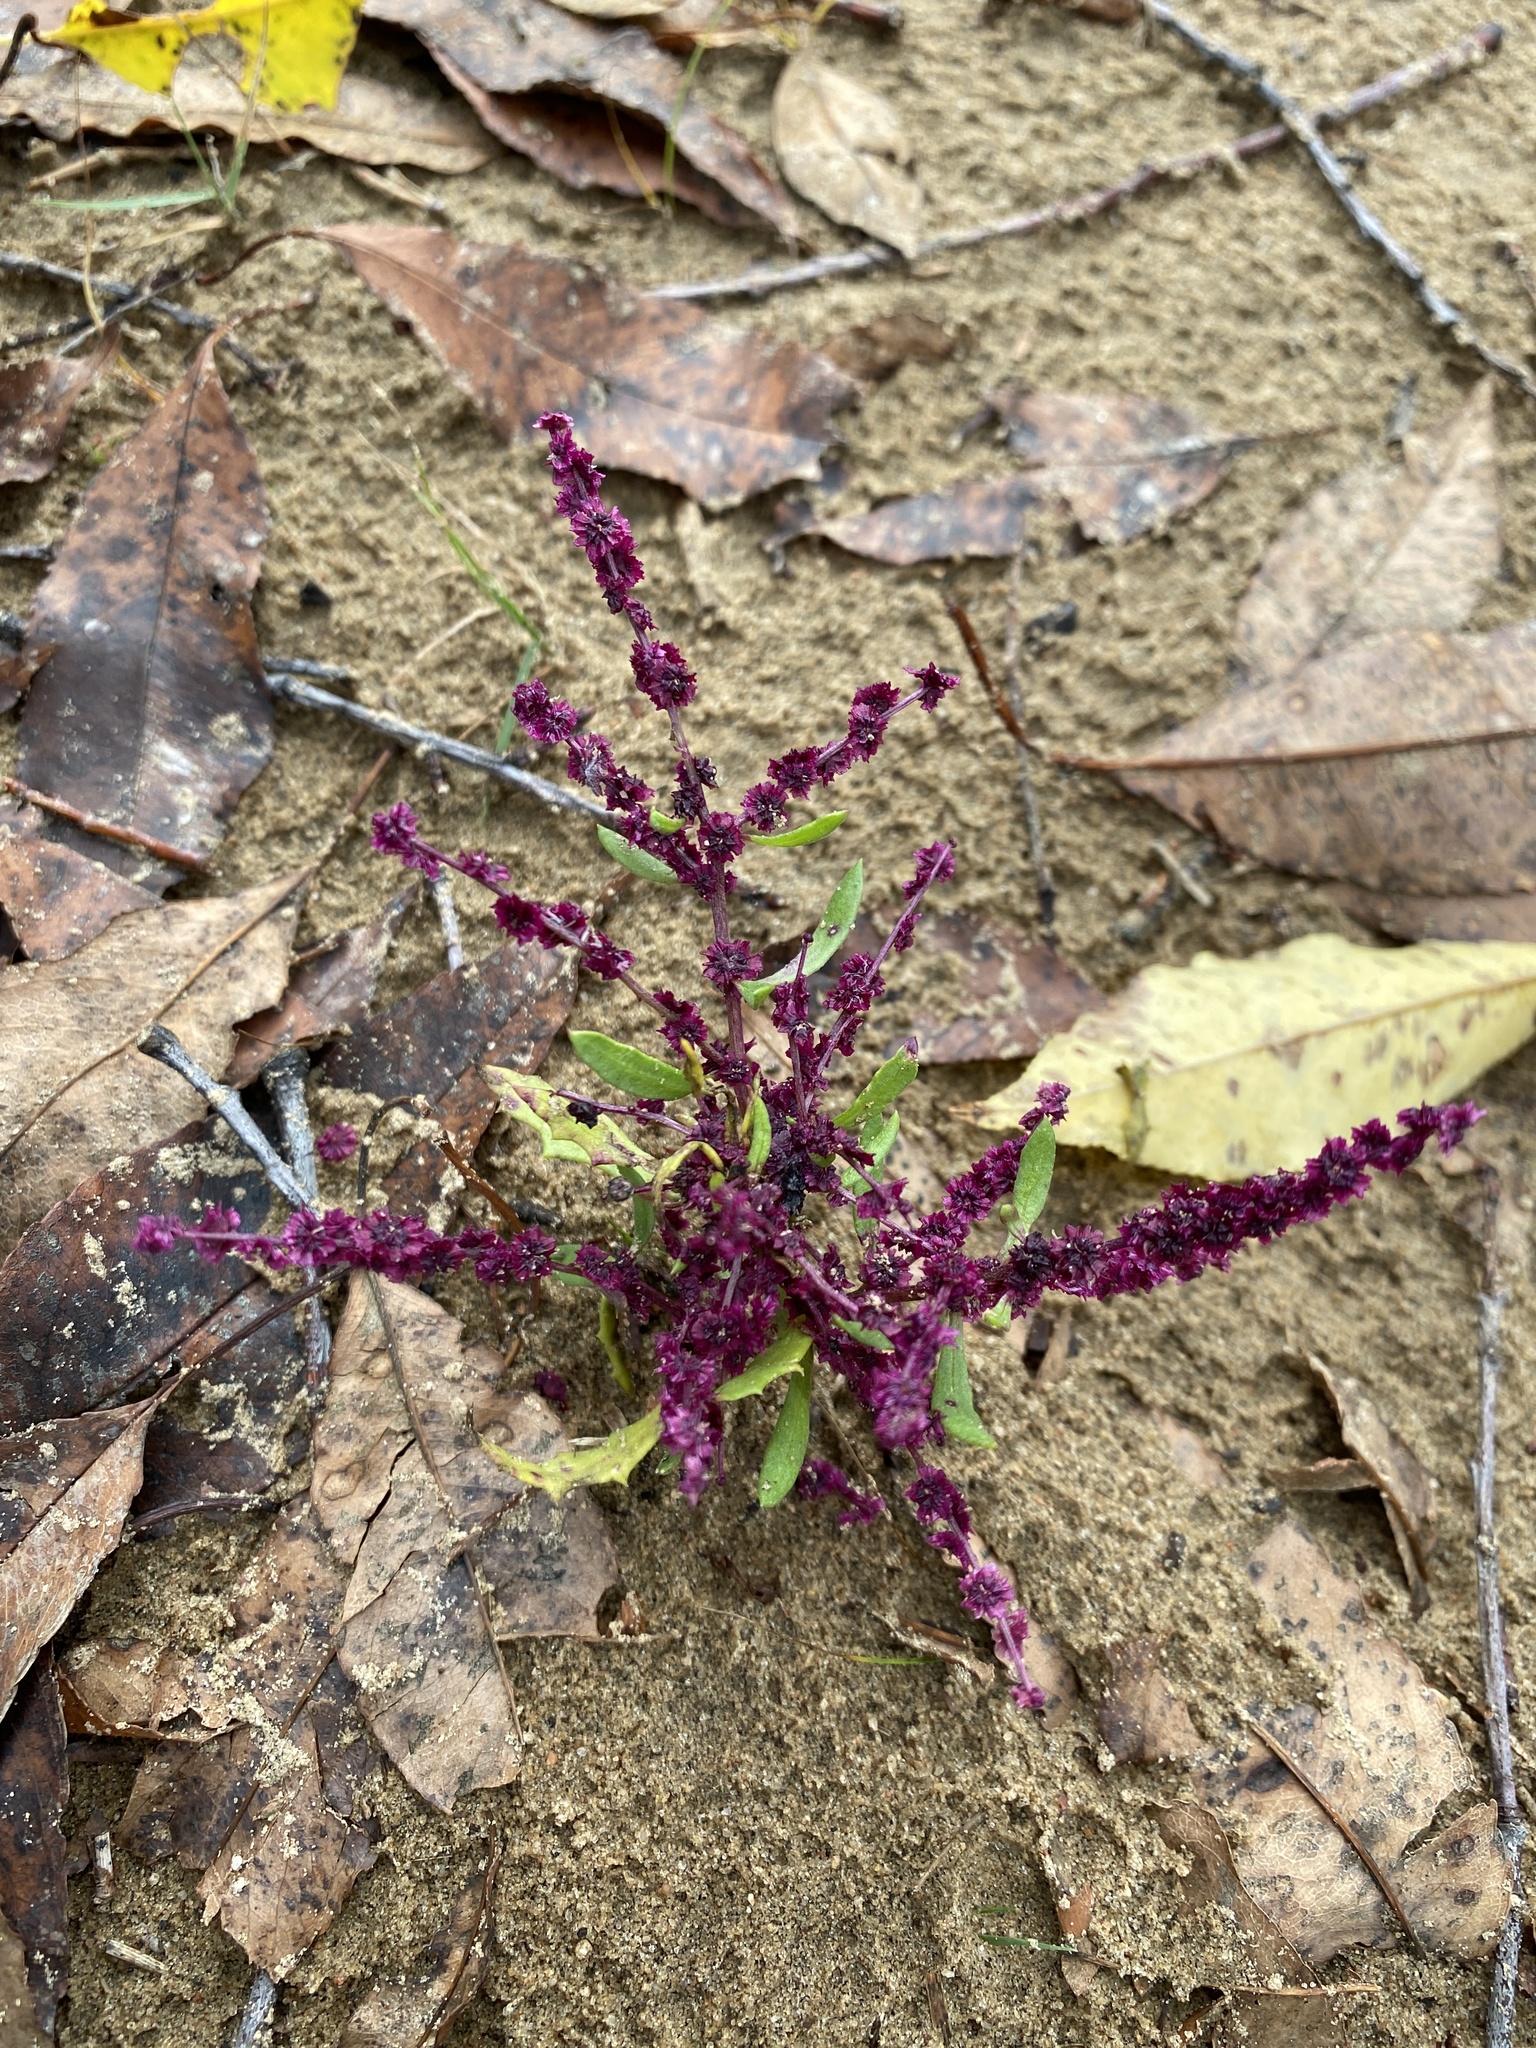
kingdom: Plantae
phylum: Tracheophyta
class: Magnoliopsida
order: Caryophyllales
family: Amaranthaceae
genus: Dysphania
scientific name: Dysphania atriplicifolia
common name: Plains tumbleweed
